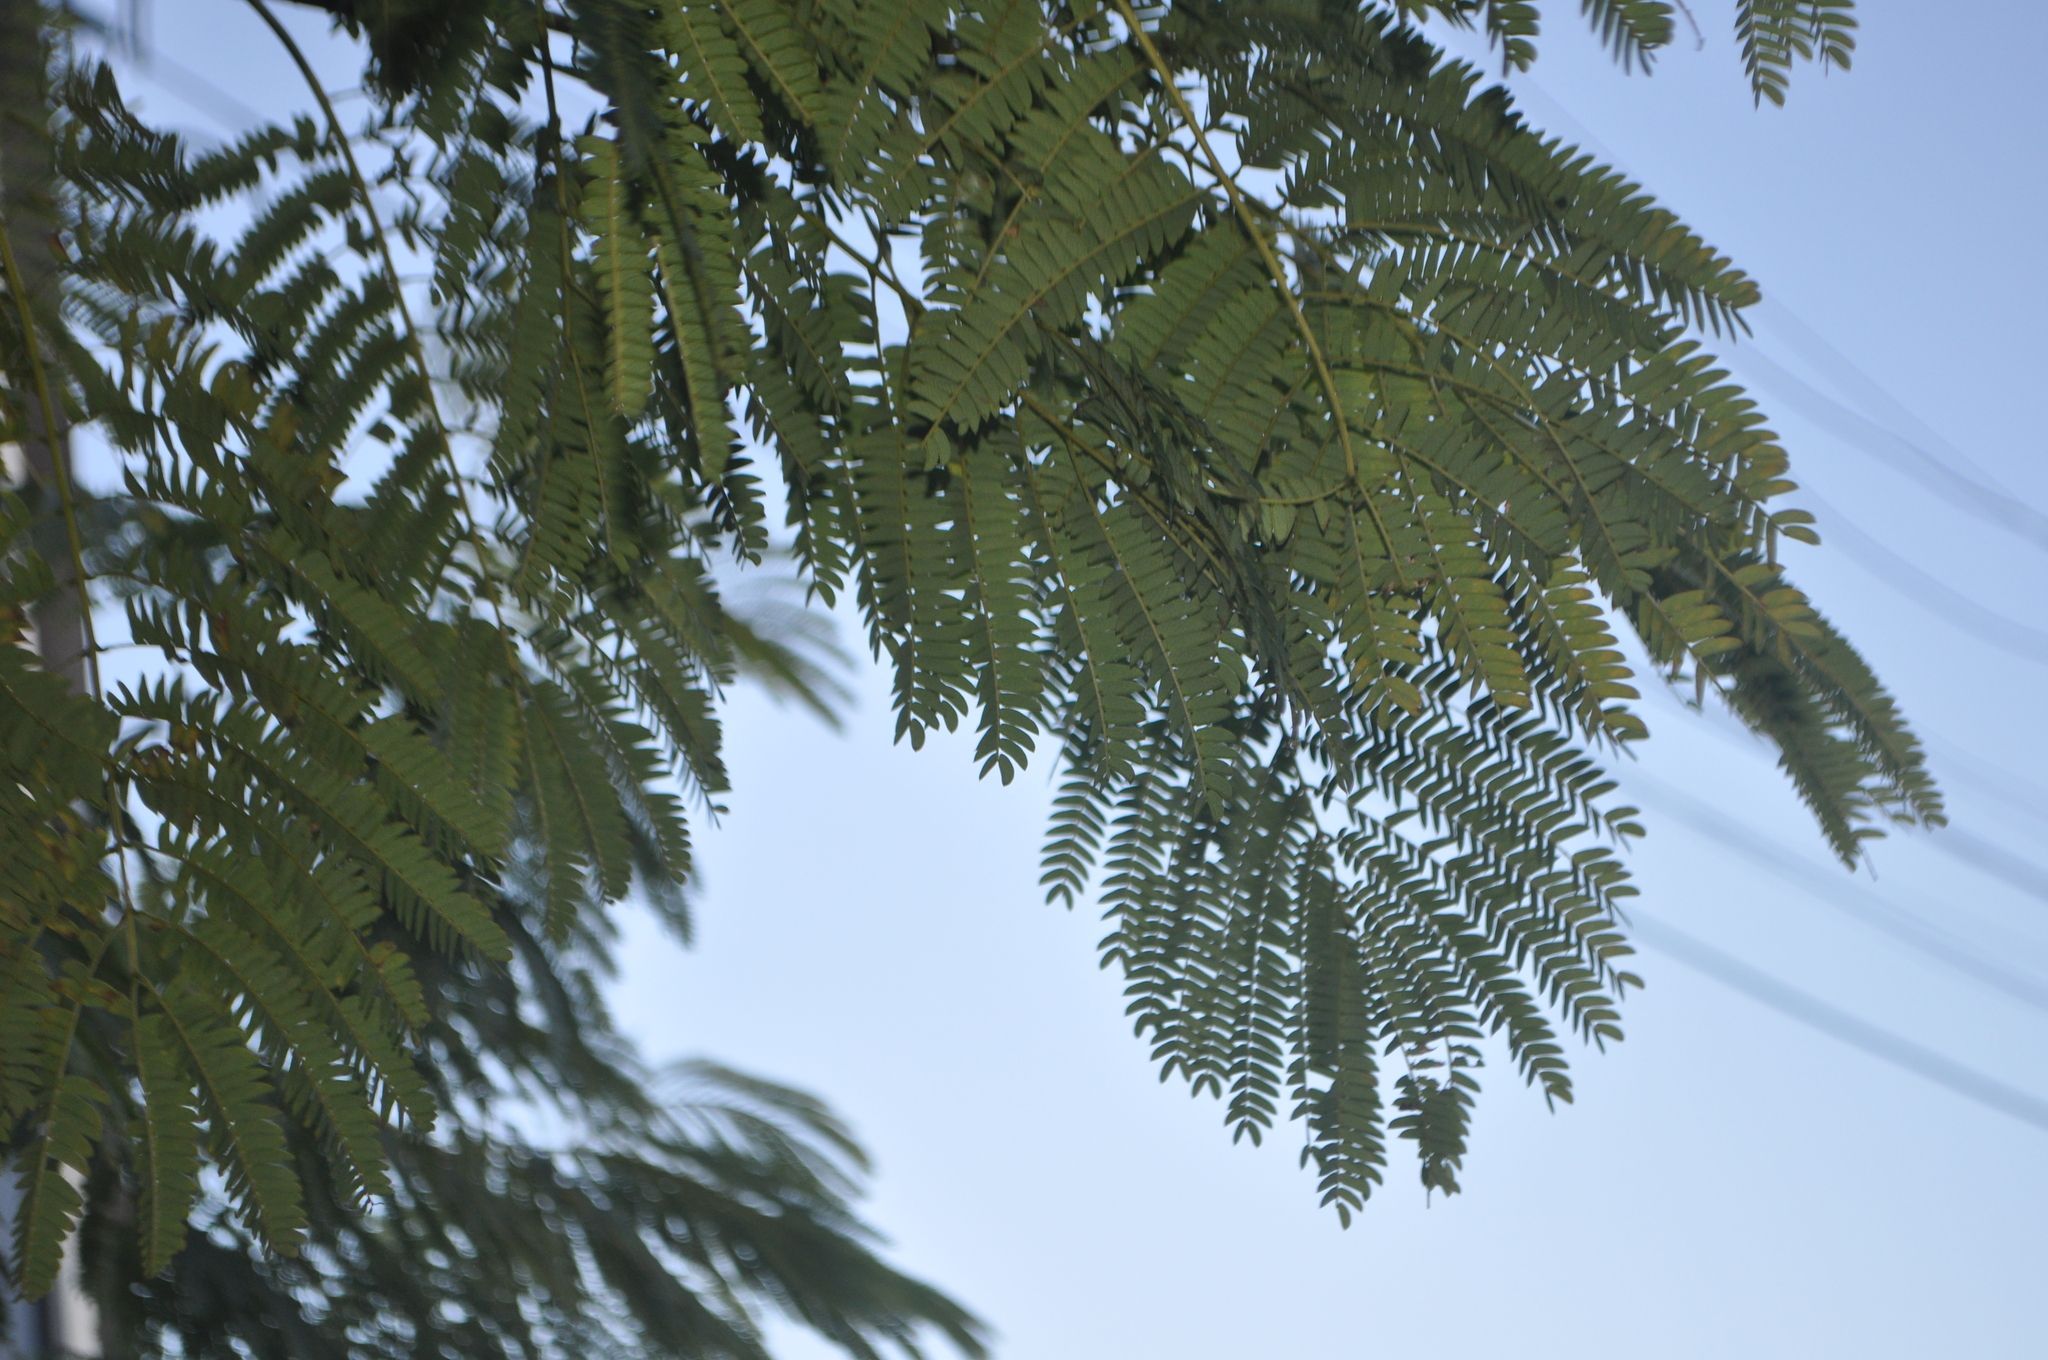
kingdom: Plantae
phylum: Tracheophyta
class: Magnoliopsida
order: Fabales
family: Fabaceae
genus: Paraserianthes
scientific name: Paraserianthes lophantha
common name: Plume albizia
